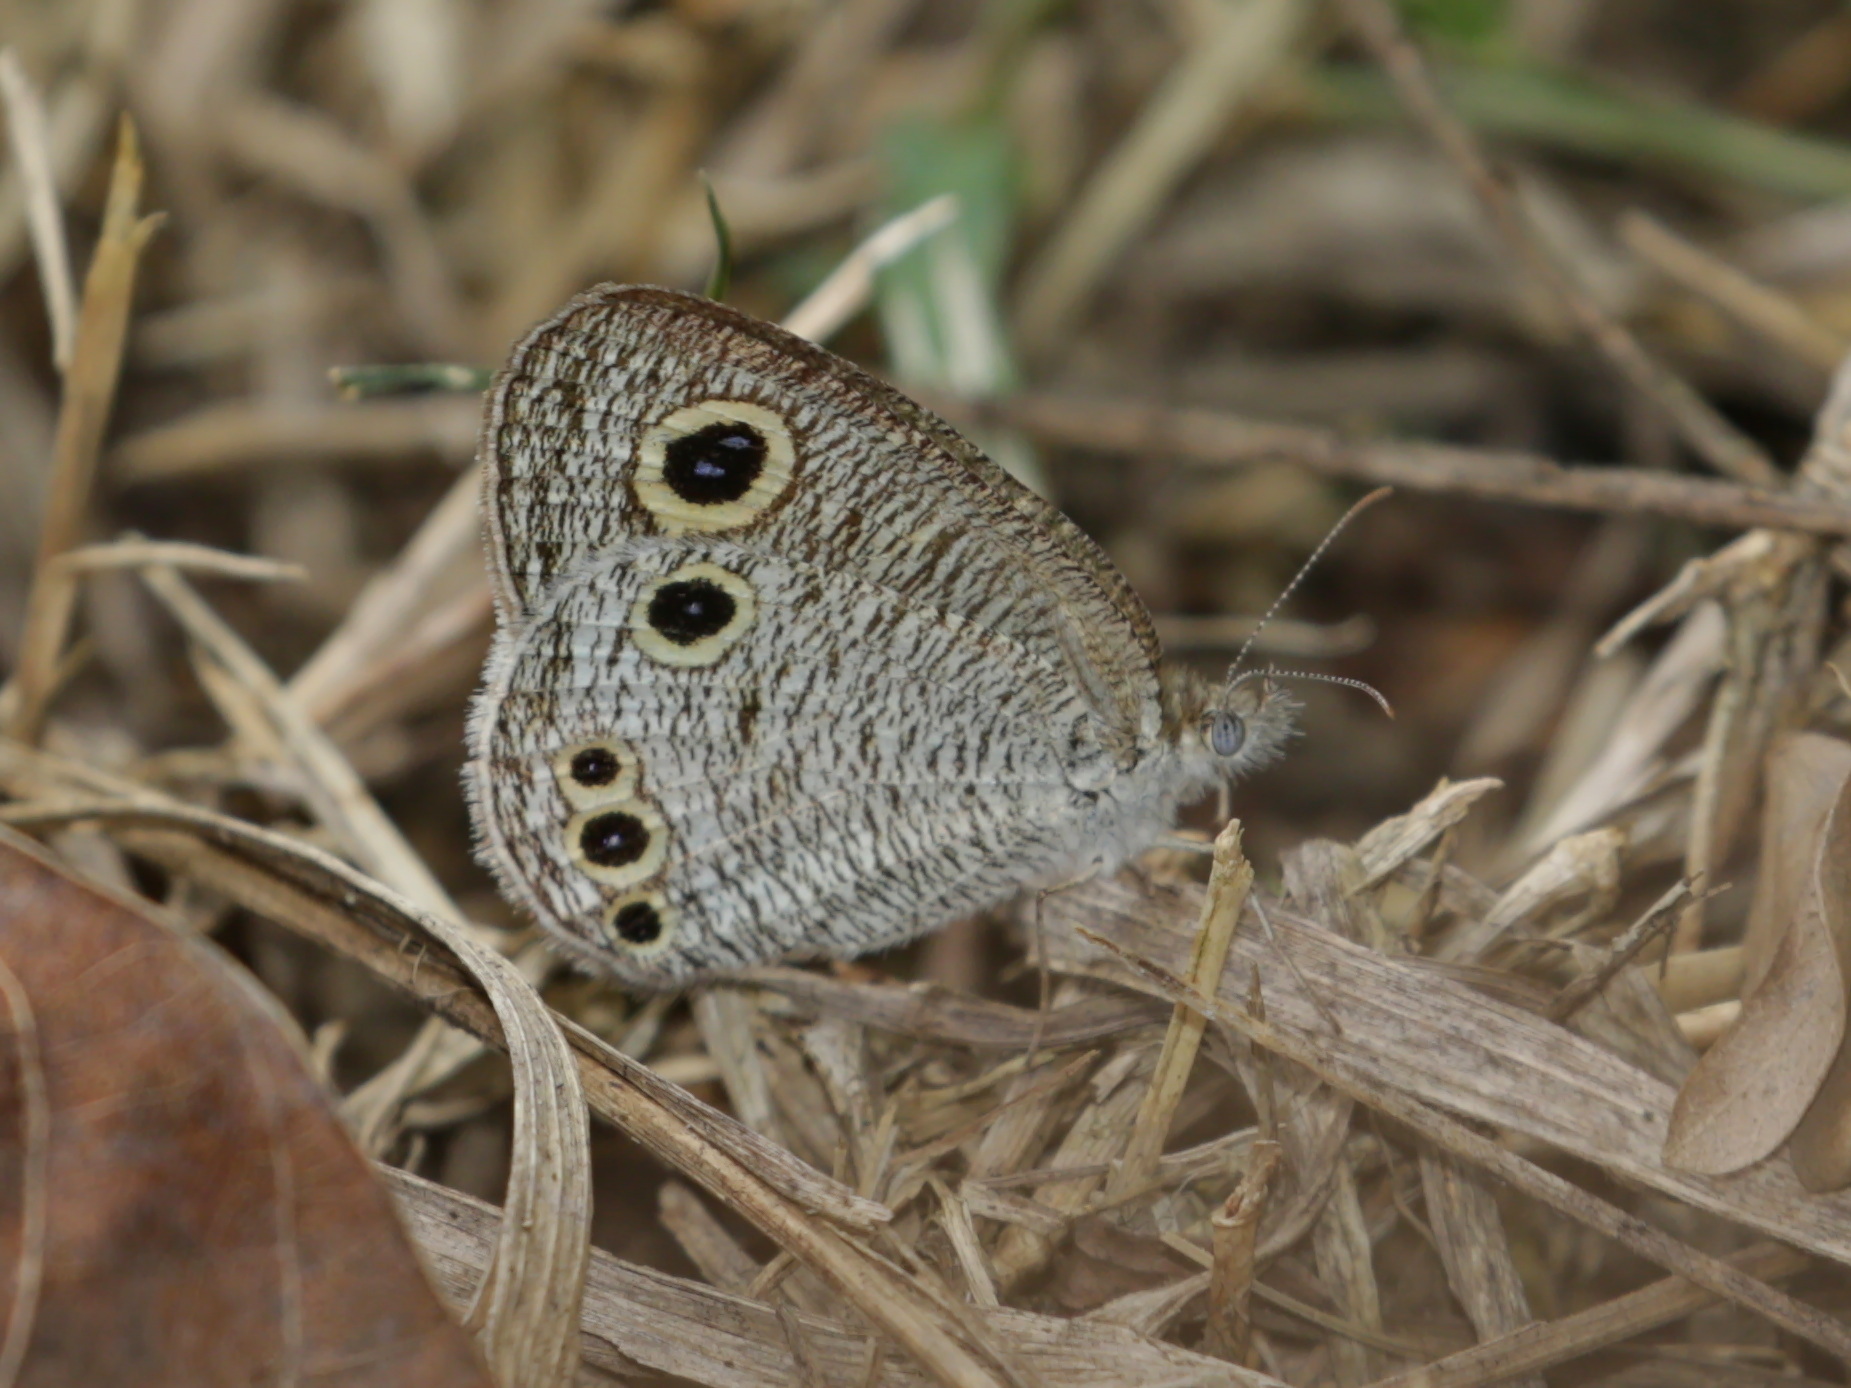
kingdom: Animalia
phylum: Arthropoda
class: Insecta
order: Lepidoptera
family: Nymphalidae
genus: Ypthima
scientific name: Ypthima huebneri
